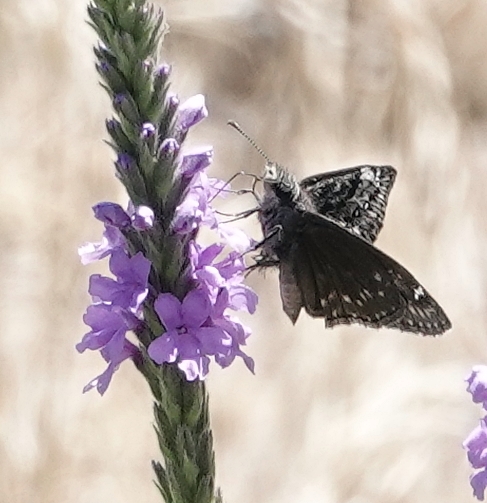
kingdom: Animalia
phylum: Arthropoda
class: Insecta
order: Lepidoptera
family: Hesperiidae
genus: Erynnis
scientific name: Erynnis afranius
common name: Afranius duskywing
